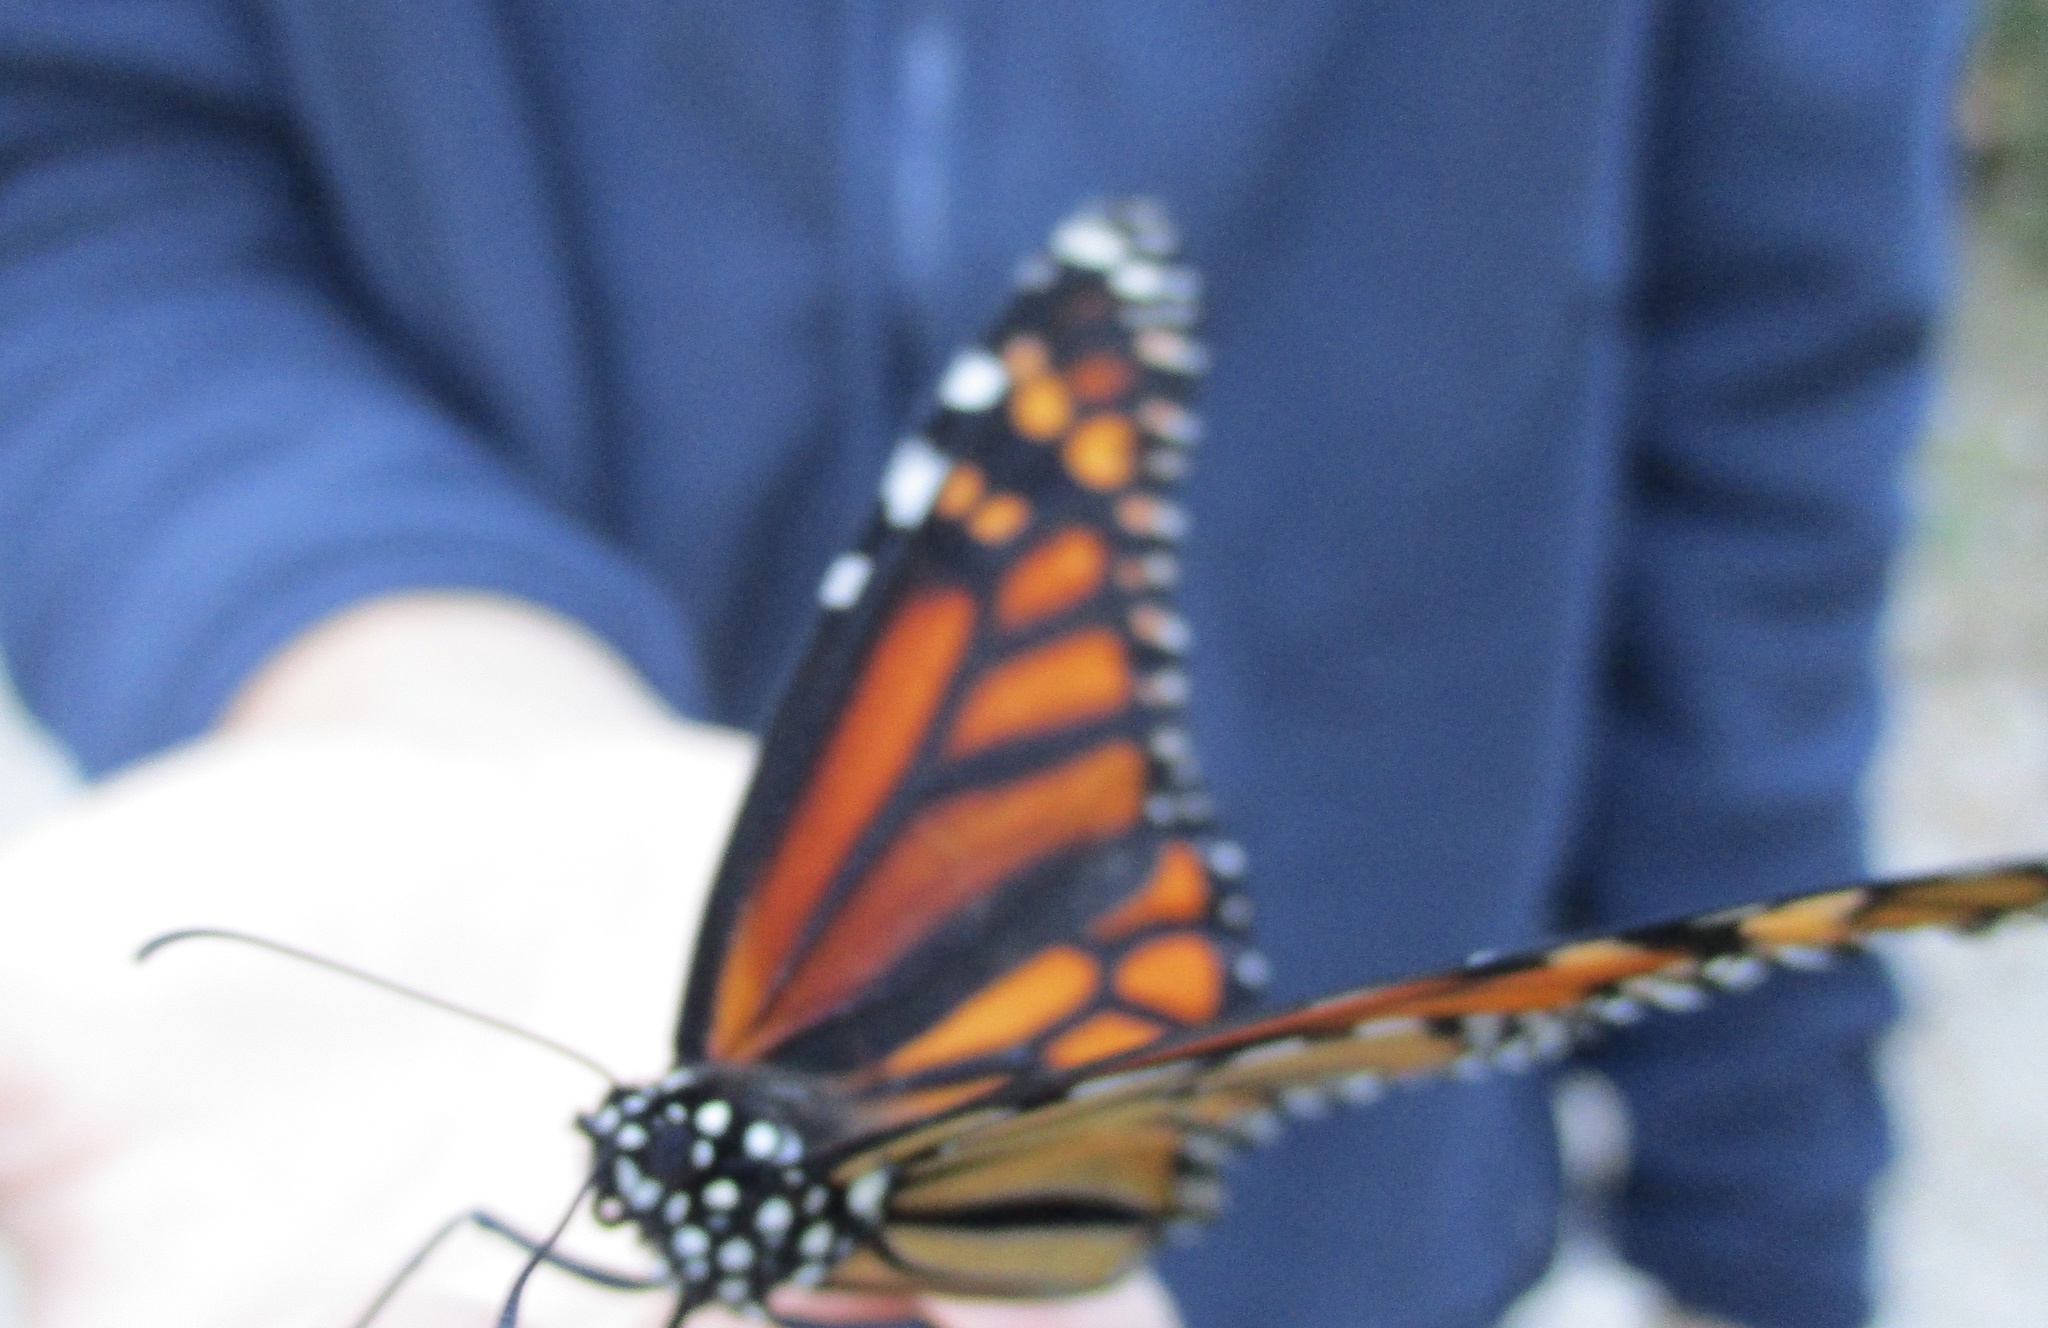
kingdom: Animalia
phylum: Arthropoda
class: Insecta
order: Lepidoptera
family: Nymphalidae
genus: Danaus
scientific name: Danaus plexippus
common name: Monarch
